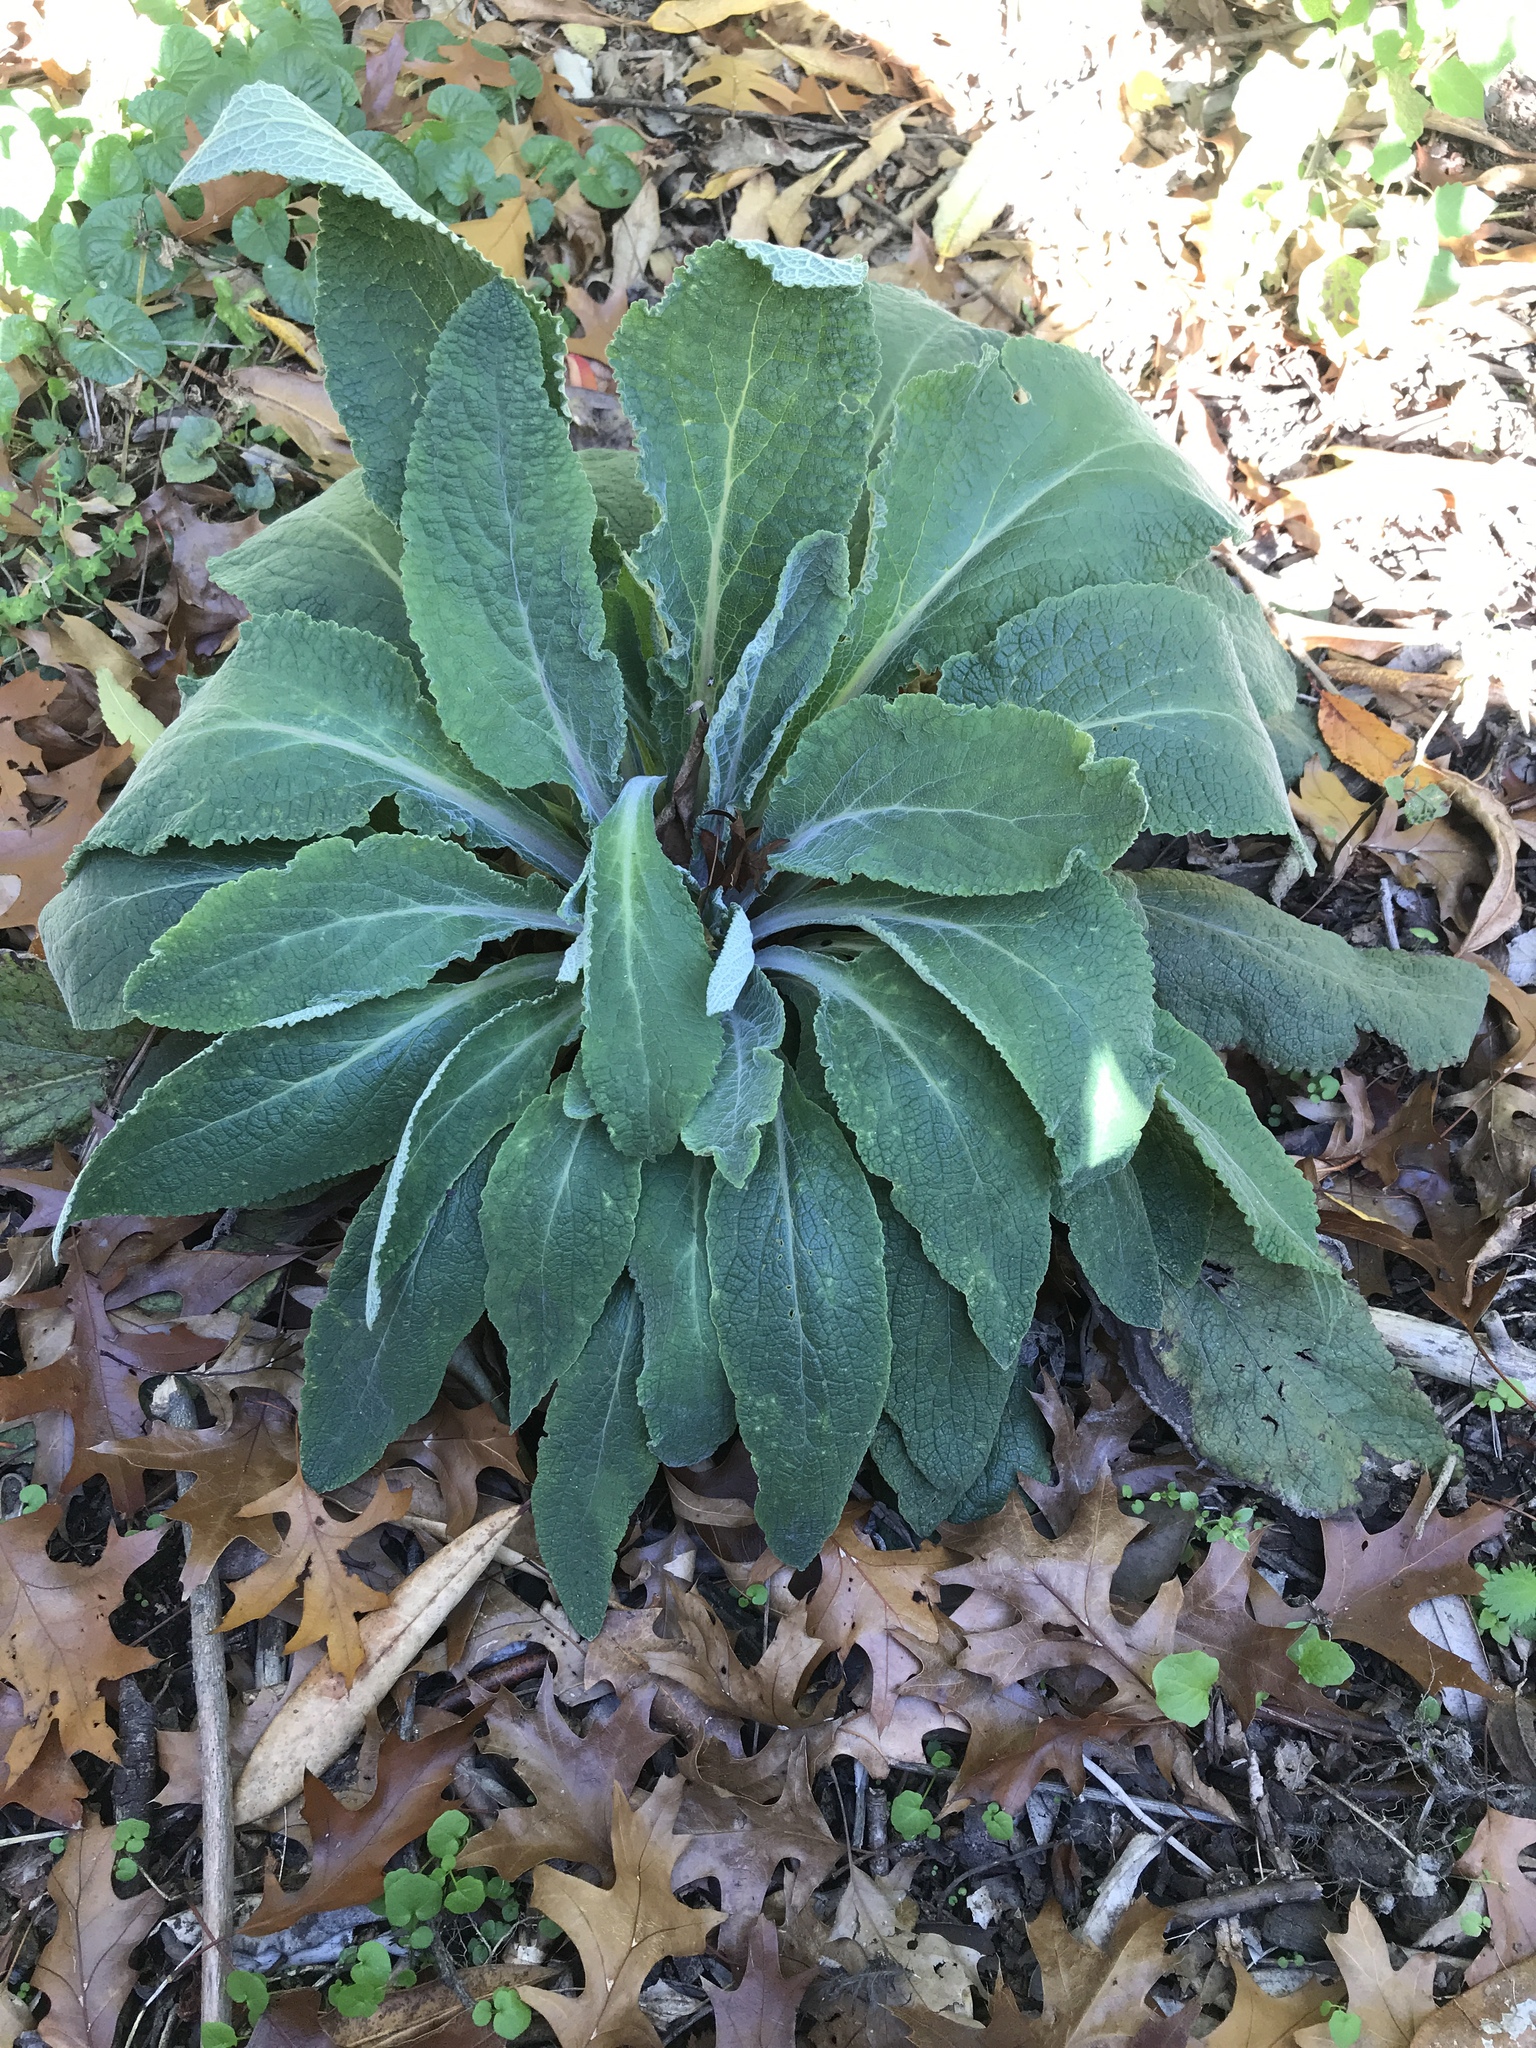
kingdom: Plantae
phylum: Tracheophyta
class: Magnoliopsida
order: Lamiales
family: Plantaginaceae
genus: Digitalis
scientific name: Digitalis purpurea
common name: Foxglove
